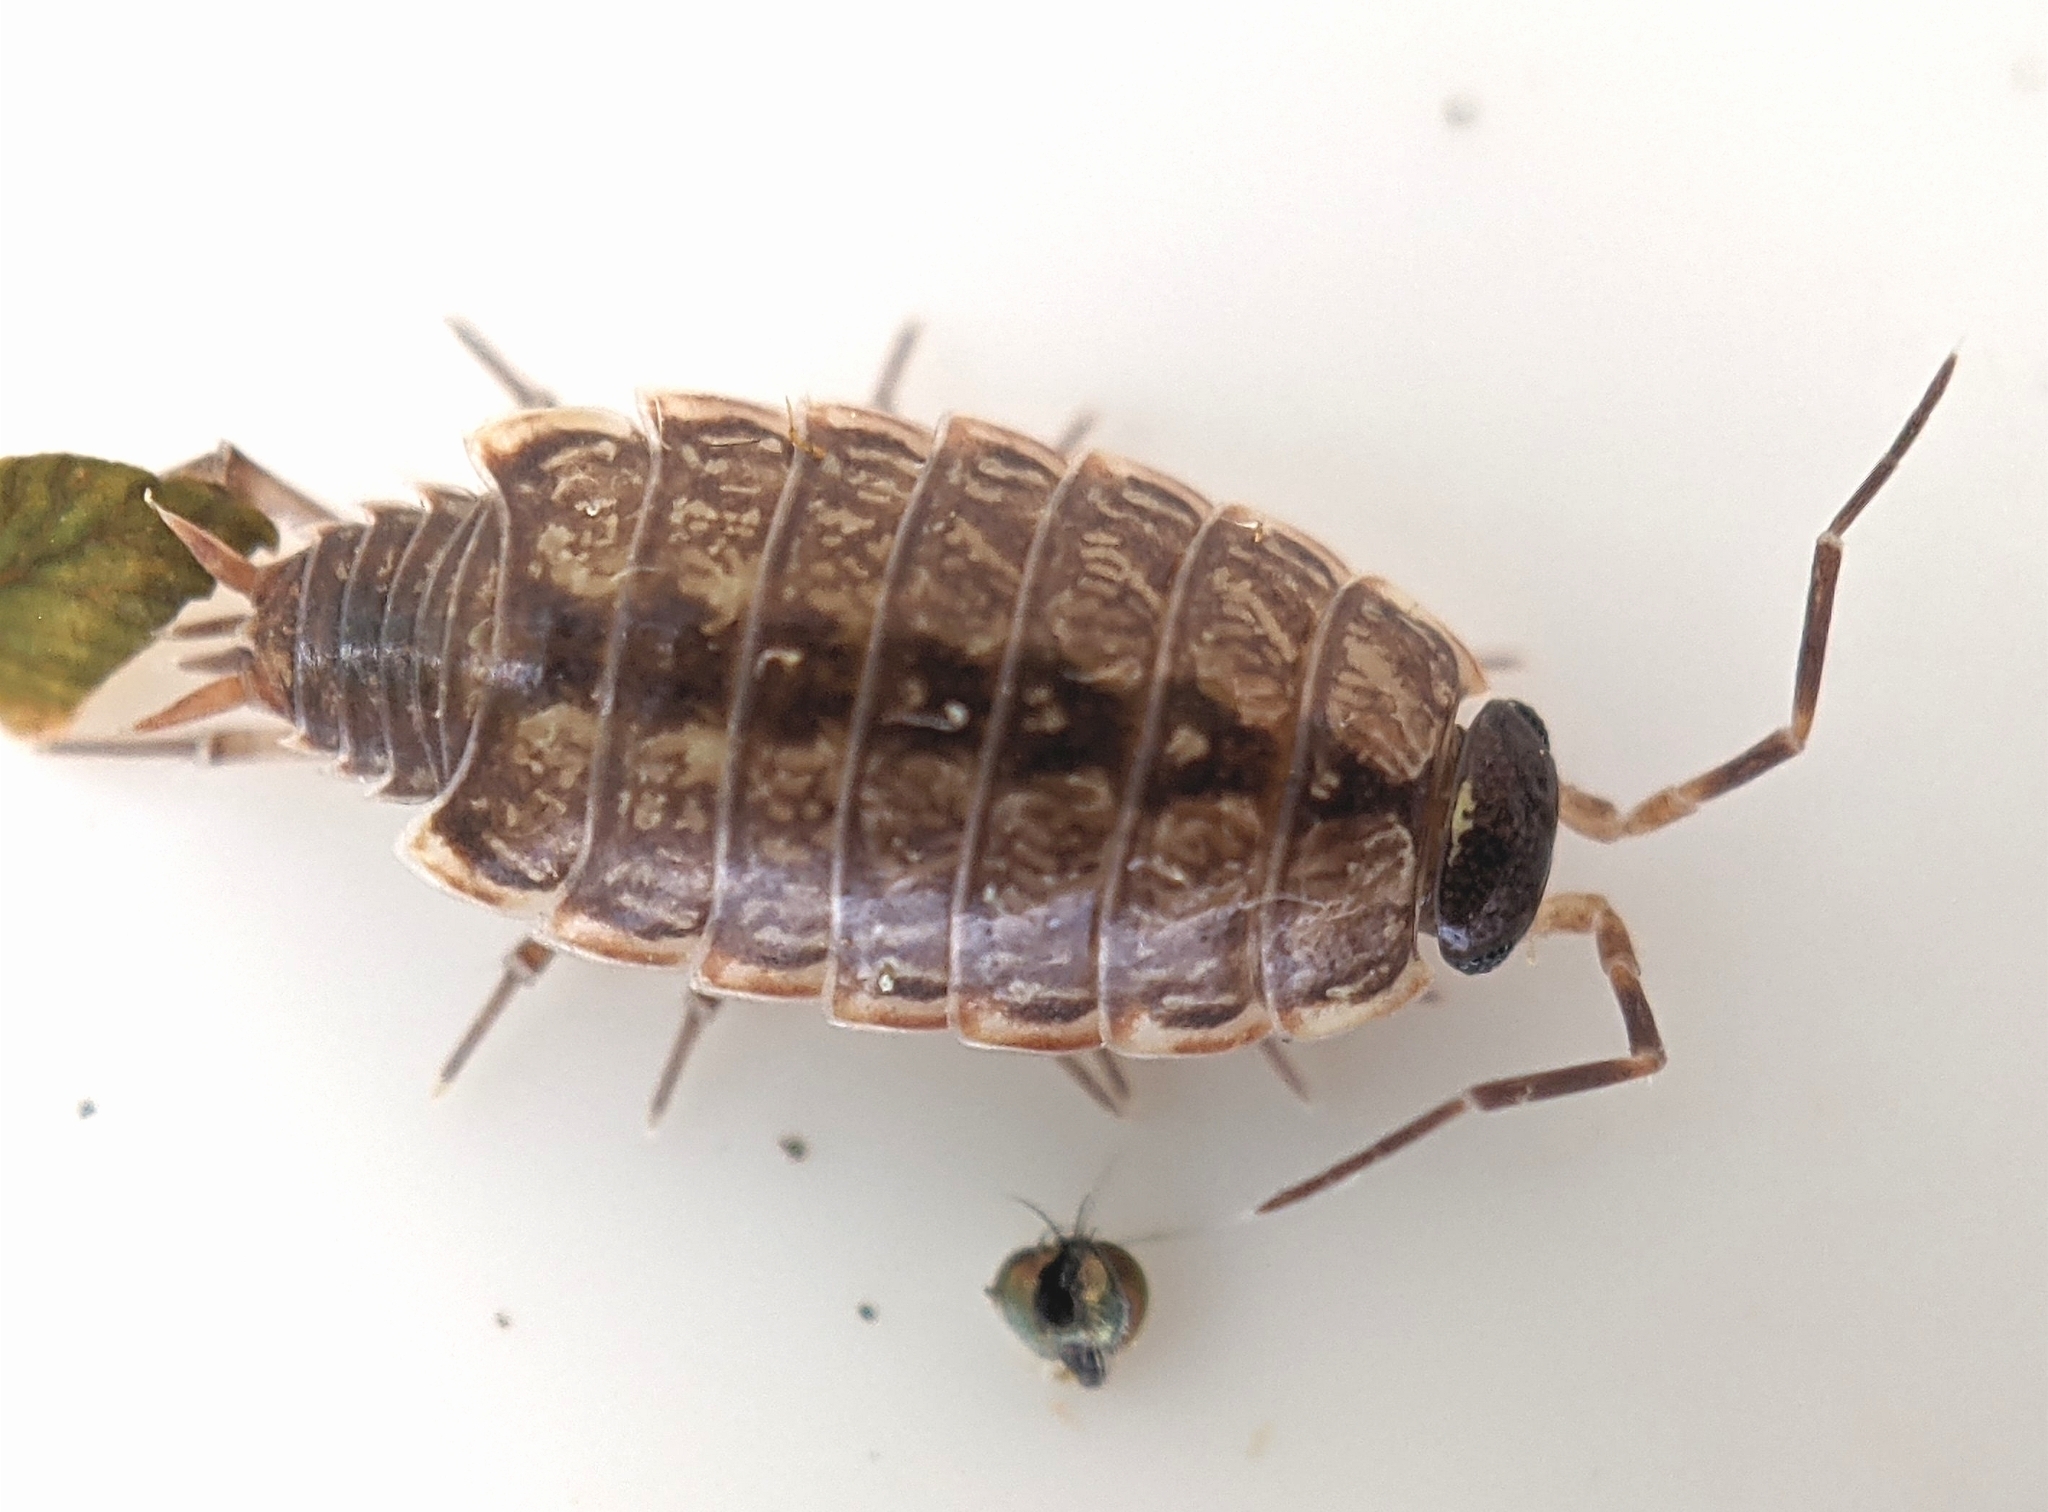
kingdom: Animalia
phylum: Arthropoda
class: Malacostraca
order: Isopoda
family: Philosciidae
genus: Philoscia
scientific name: Philoscia muscorum
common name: Common striped woodlouse
